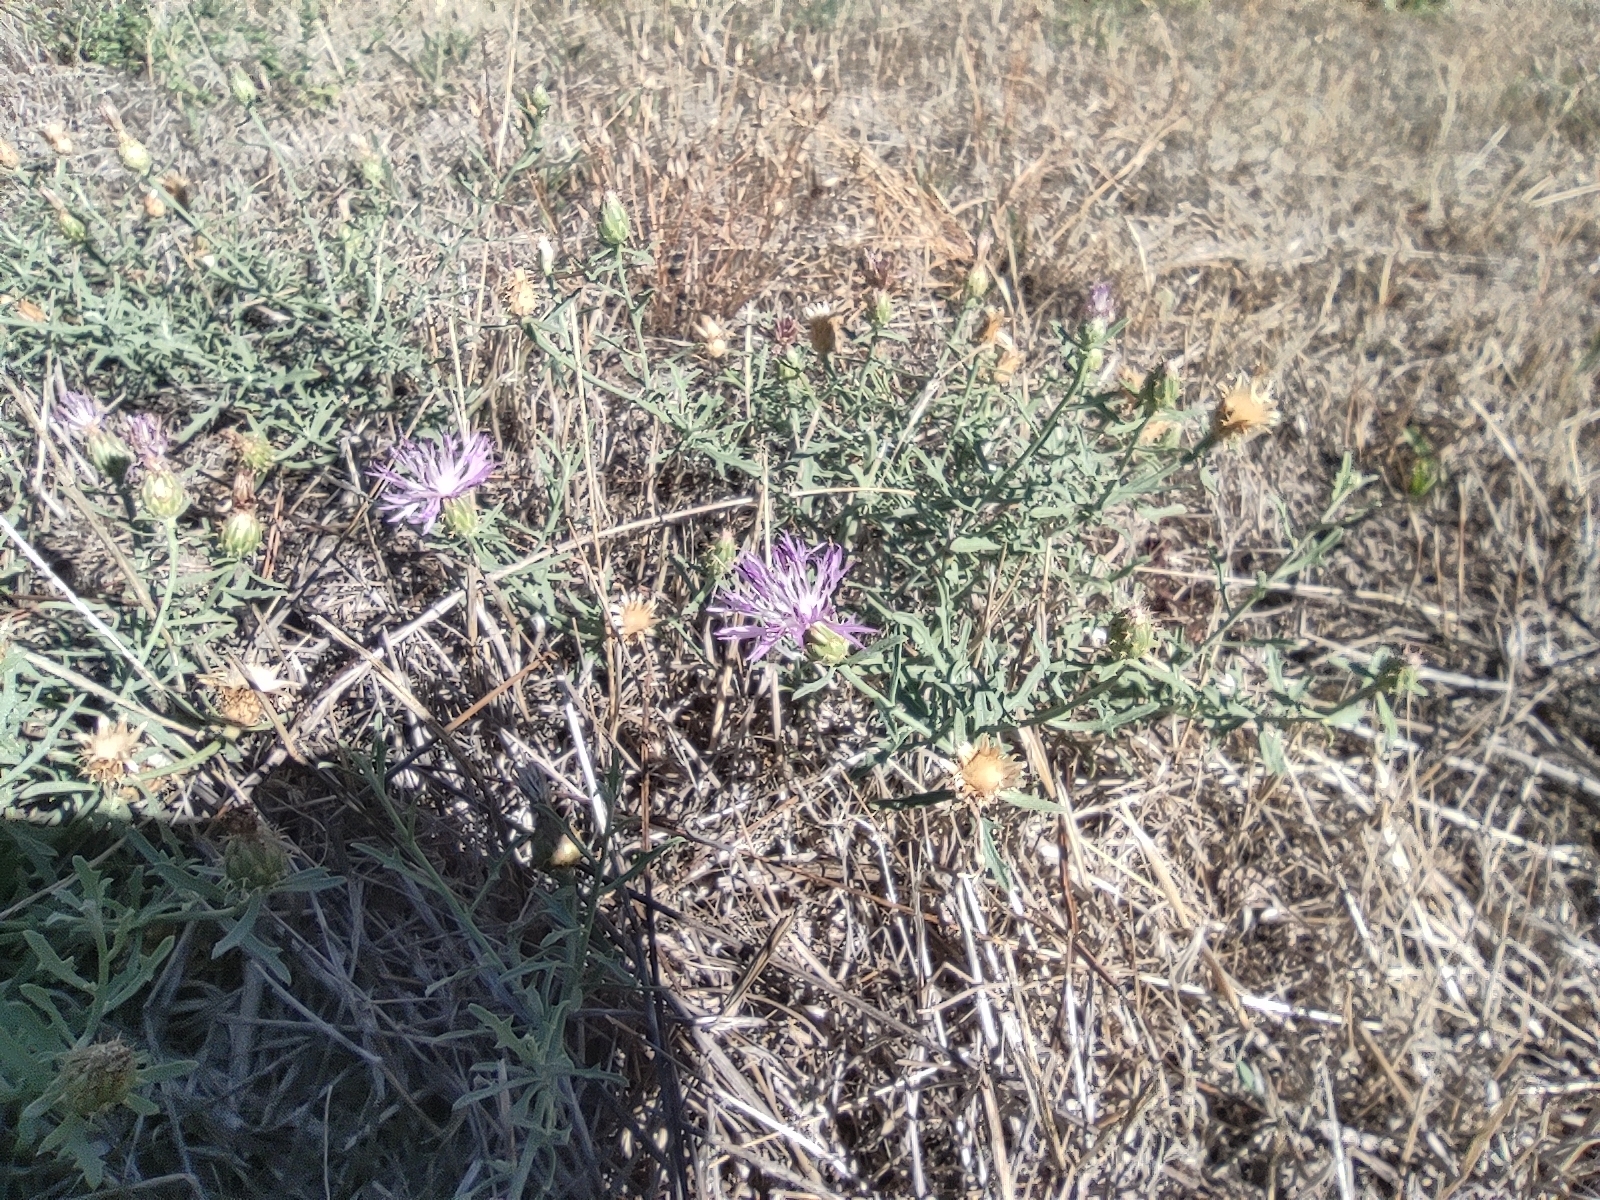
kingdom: Plantae
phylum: Tracheophyta
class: Magnoliopsida
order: Asterales
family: Asteraceae
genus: Centaurea
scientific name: Centaurea aspera
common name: Rough star-thistle
